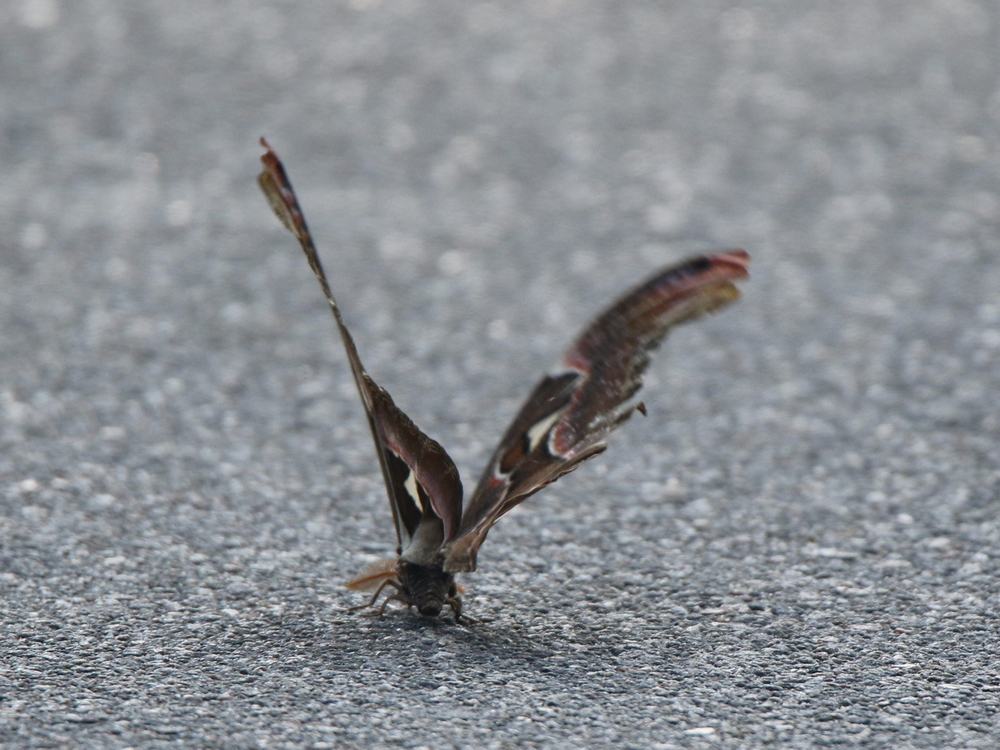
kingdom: Animalia
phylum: Arthropoda
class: Insecta
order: Lepidoptera
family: Saturniidae
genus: Attacus
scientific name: Attacus taprobanis
